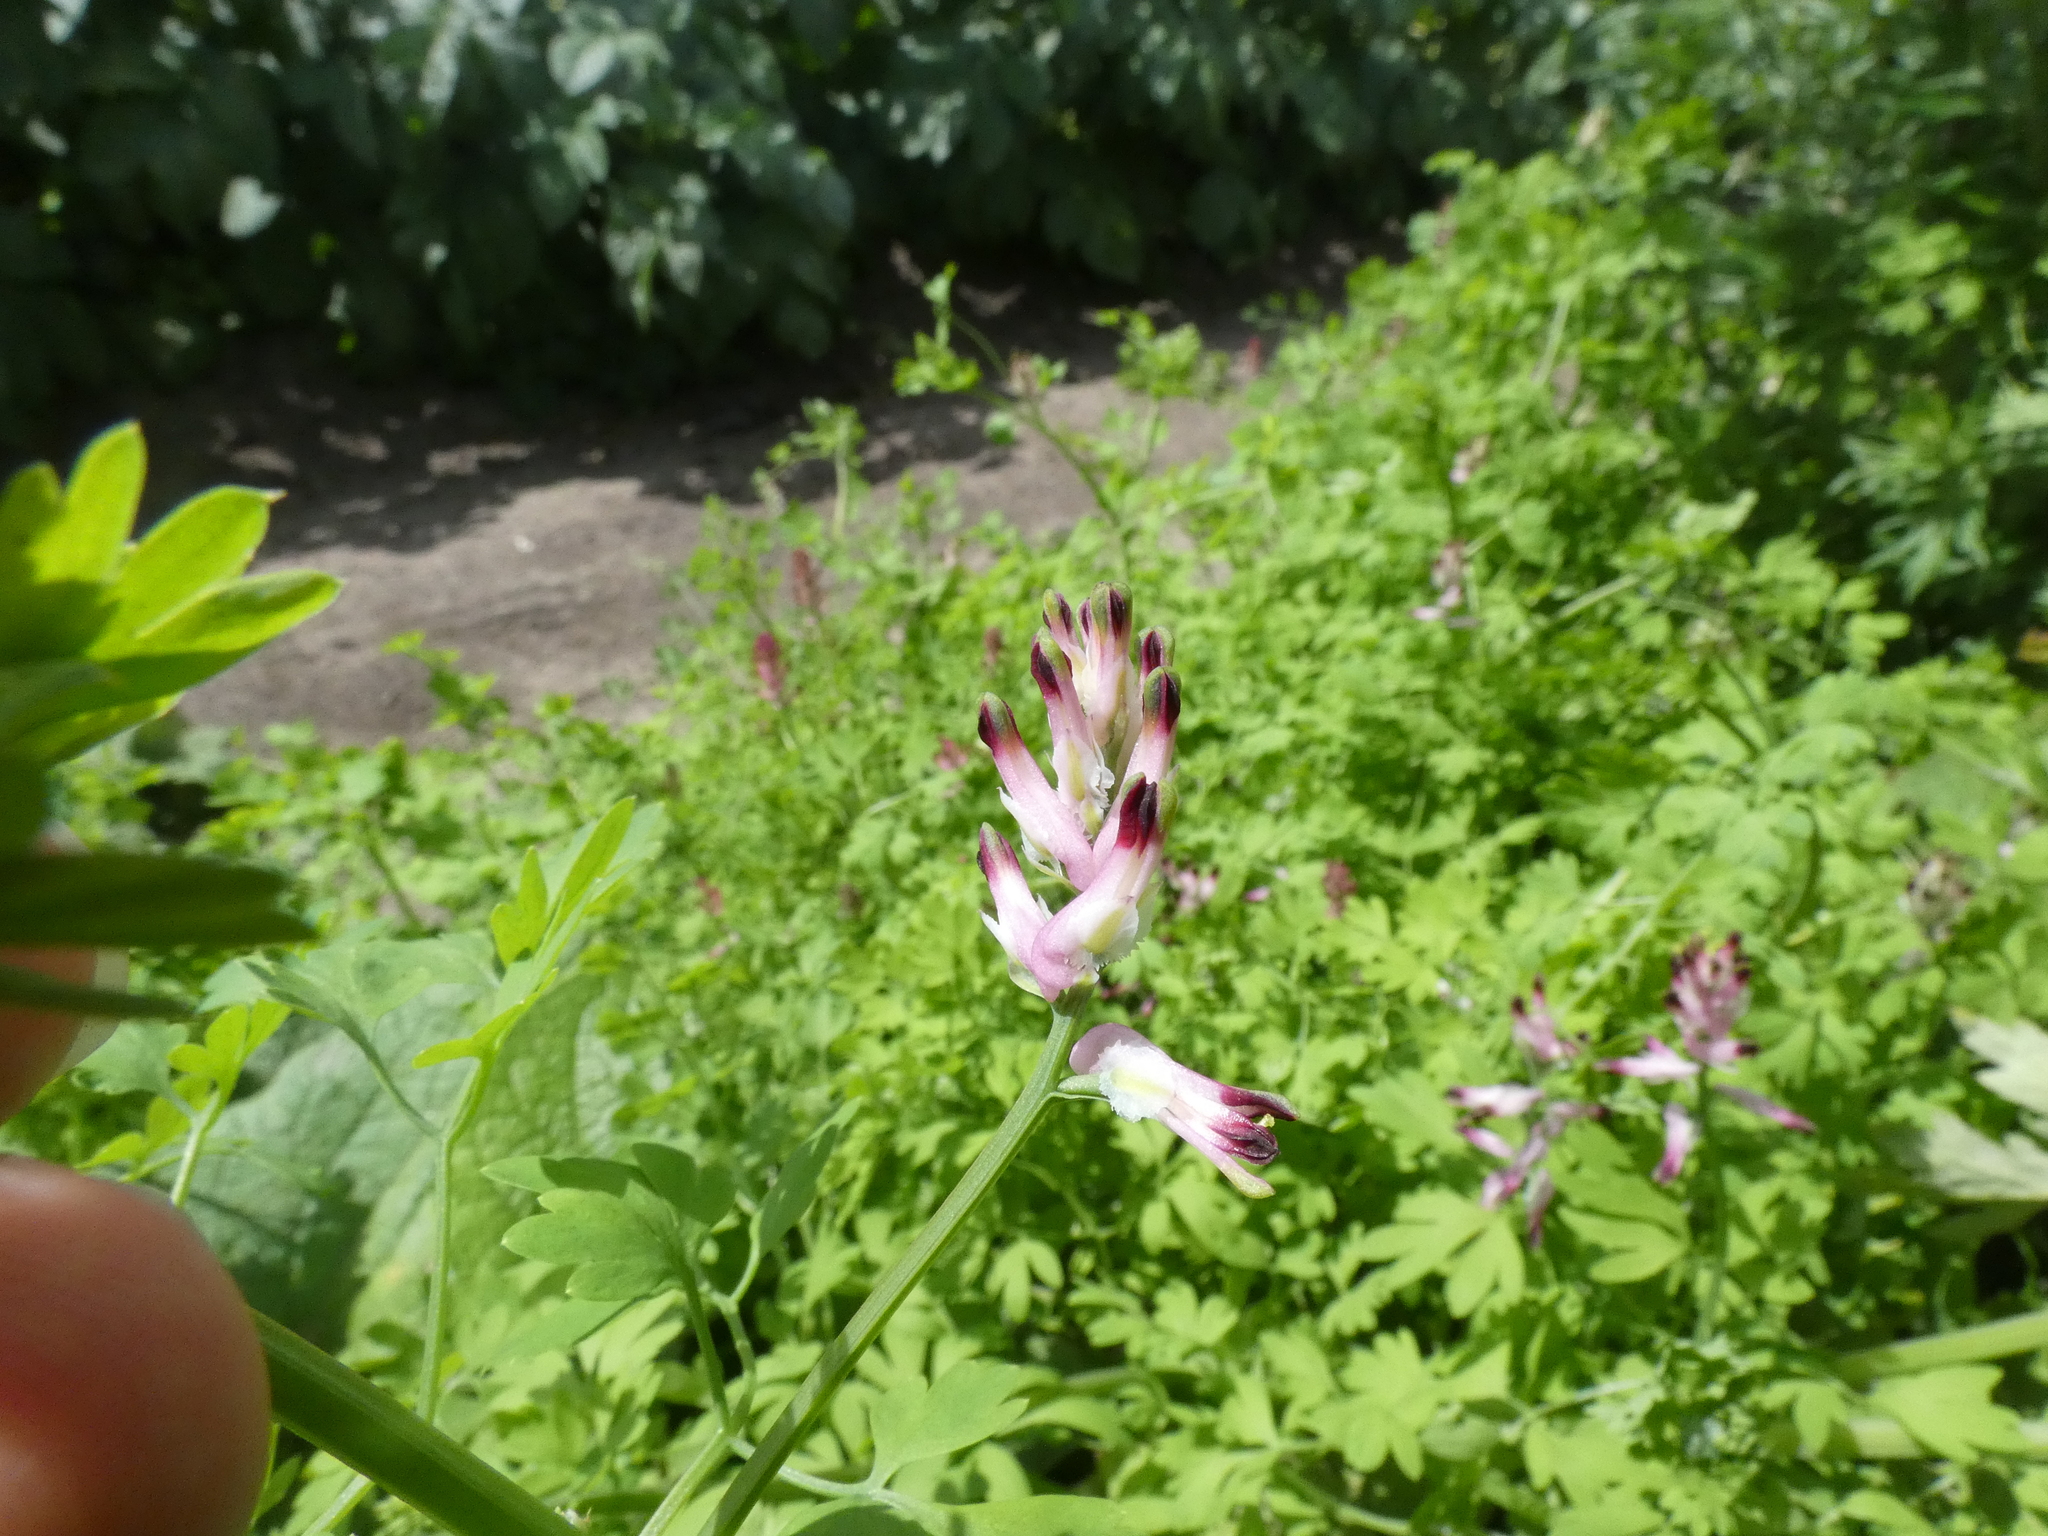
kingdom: Plantae
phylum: Tracheophyta
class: Magnoliopsida
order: Ranunculales
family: Papaveraceae
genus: Fumaria
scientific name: Fumaria muralis
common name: Common ramping-fumitory
